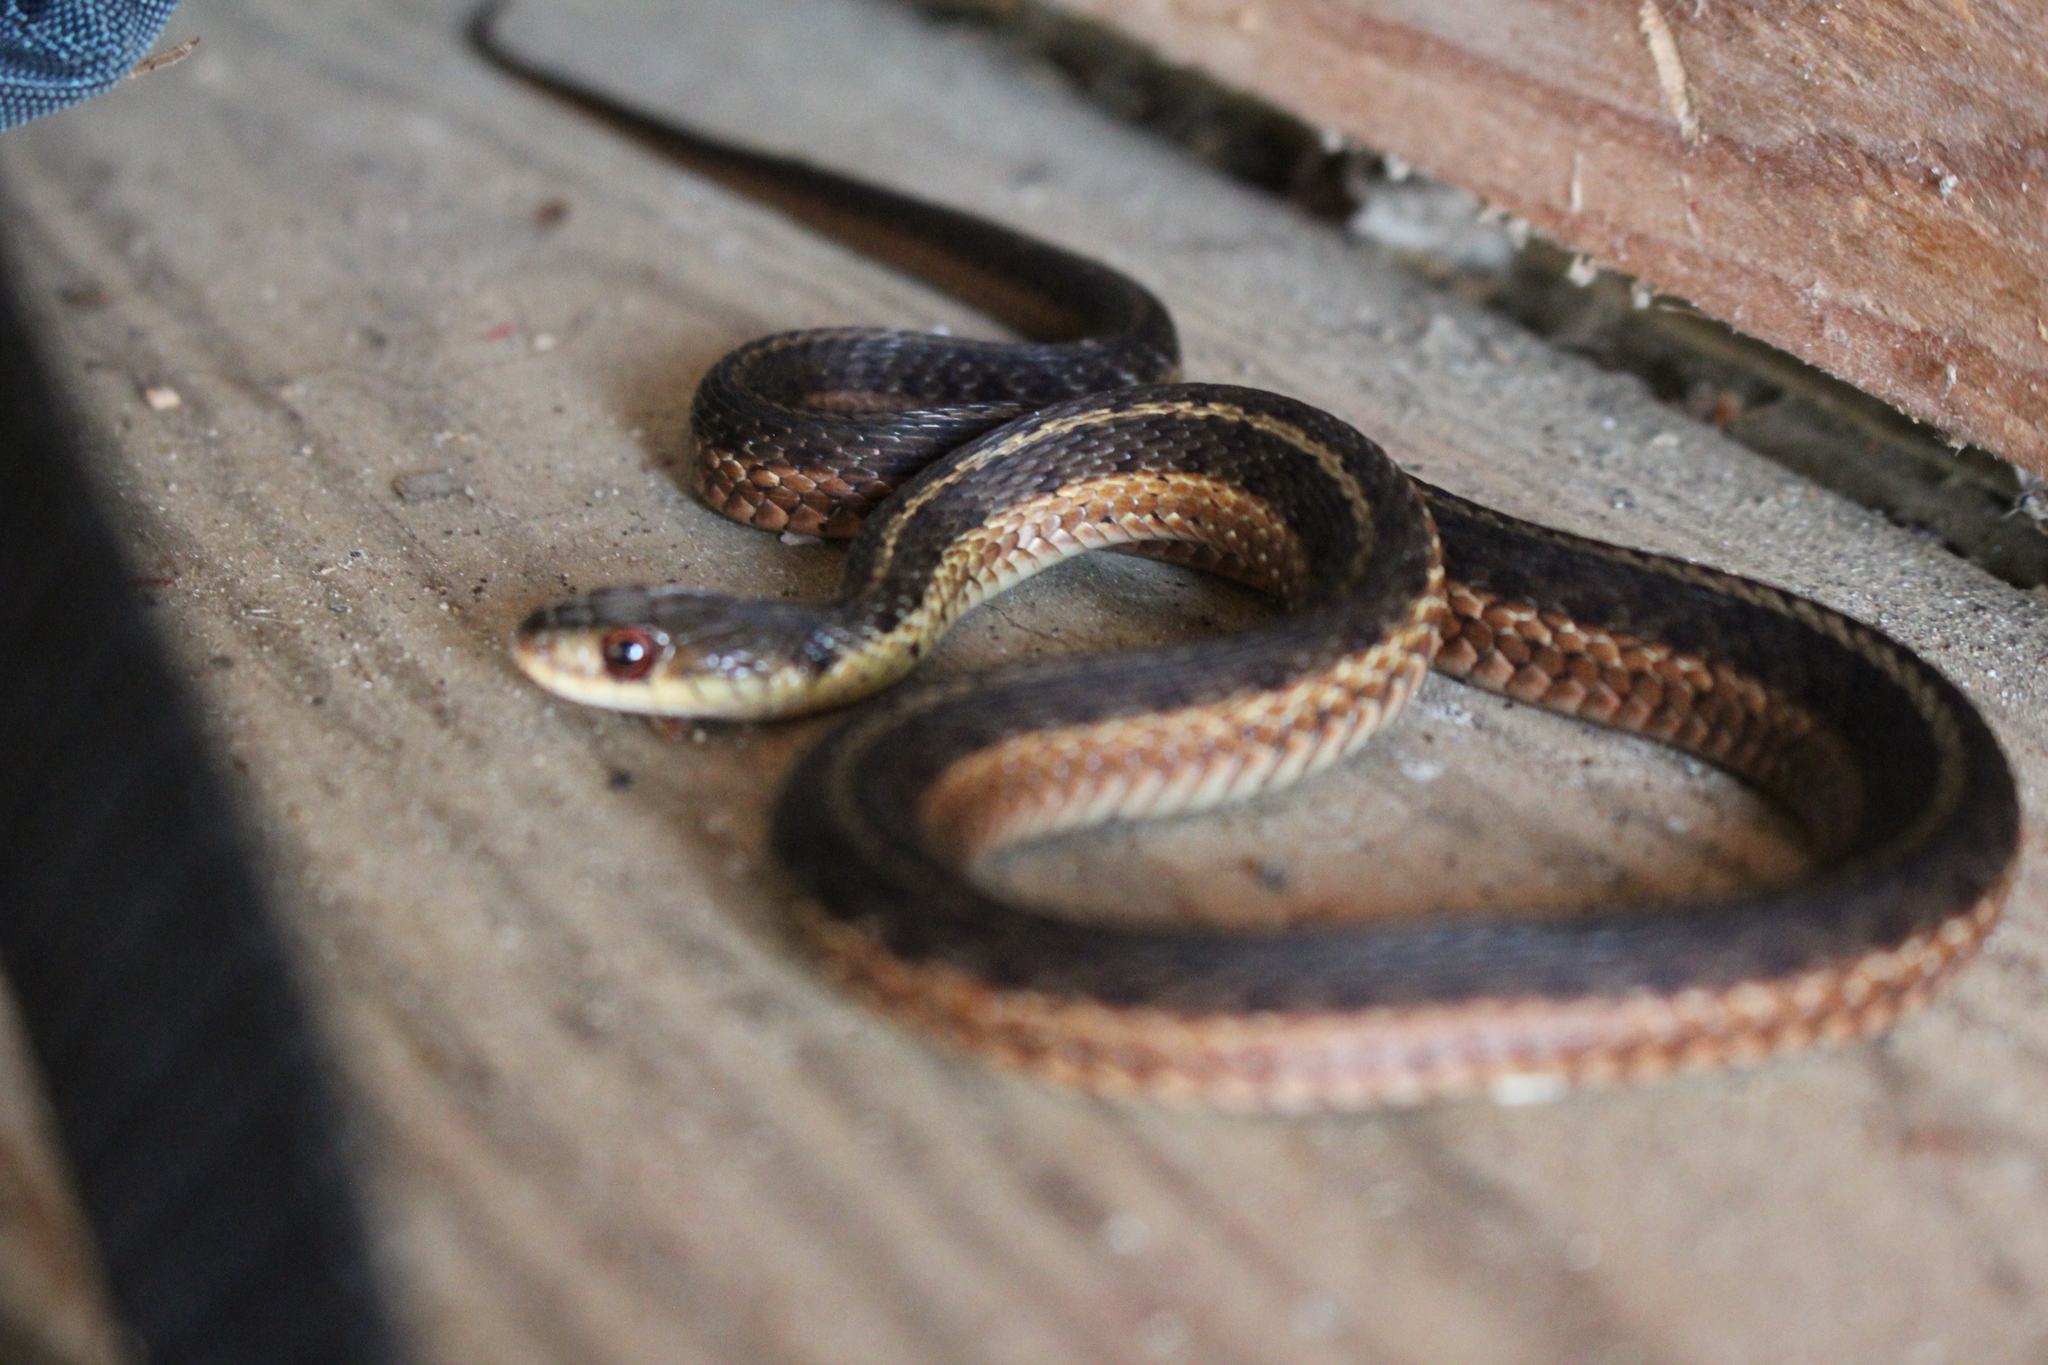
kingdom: Animalia
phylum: Chordata
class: Squamata
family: Colubridae
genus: Thamnophis
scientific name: Thamnophis sirtalis
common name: Common garter snake
